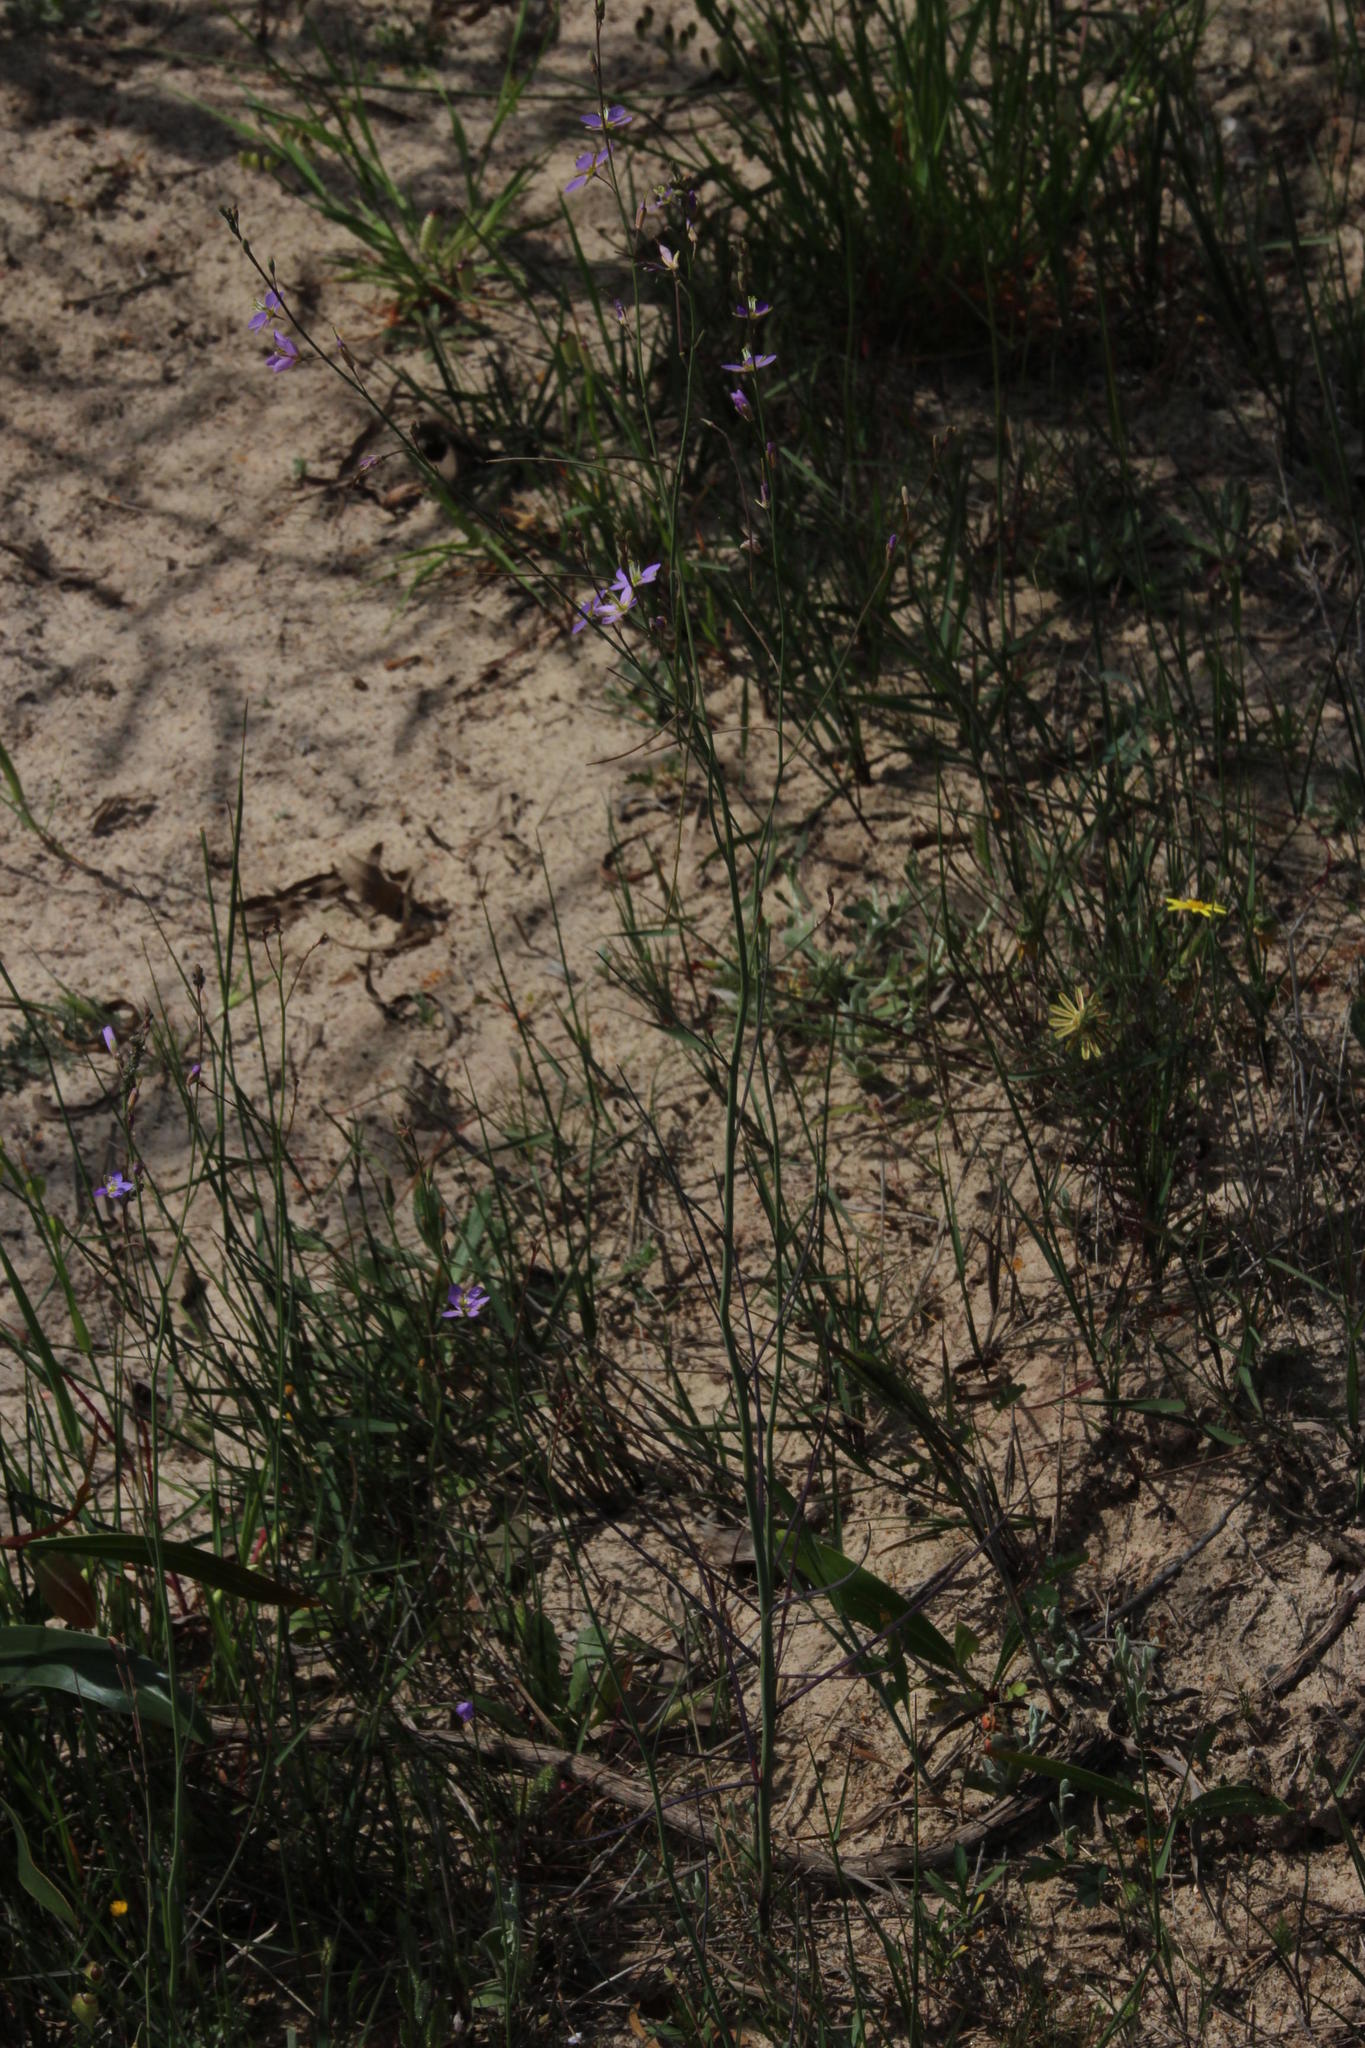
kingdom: Plantae
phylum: Tracheophyta
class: Magnoliopsida
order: Brassicales
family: Brassicaceae
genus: Heliophila
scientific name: Heliophila linoides
